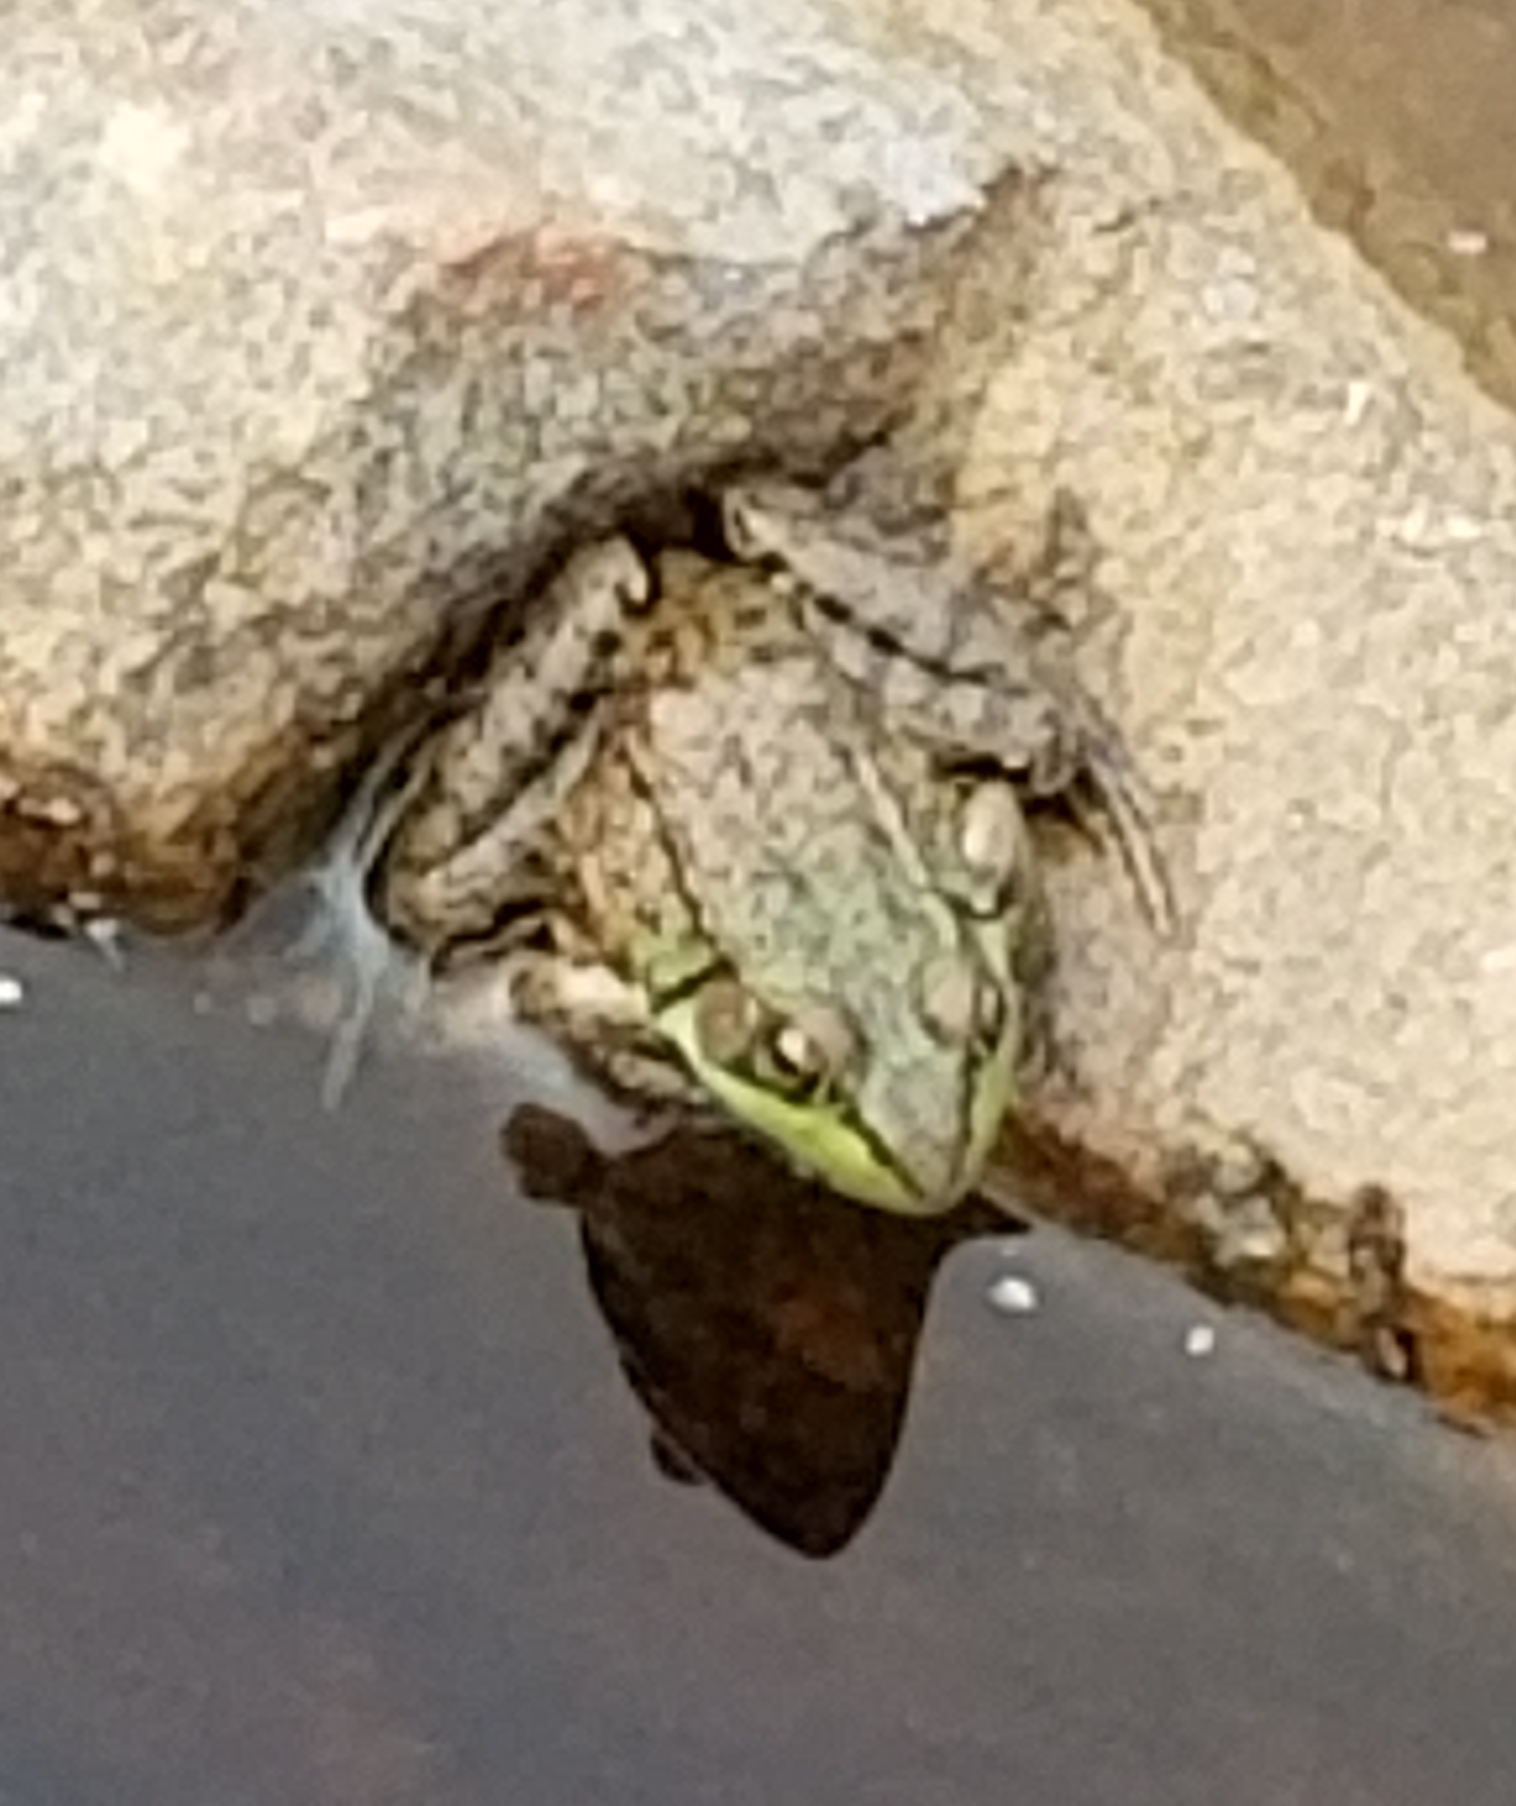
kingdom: Animalia
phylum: Chordata
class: Amphibia
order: Anura
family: Ranidae
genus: Lithobates
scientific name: Lithobates clamitans
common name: Green frog
